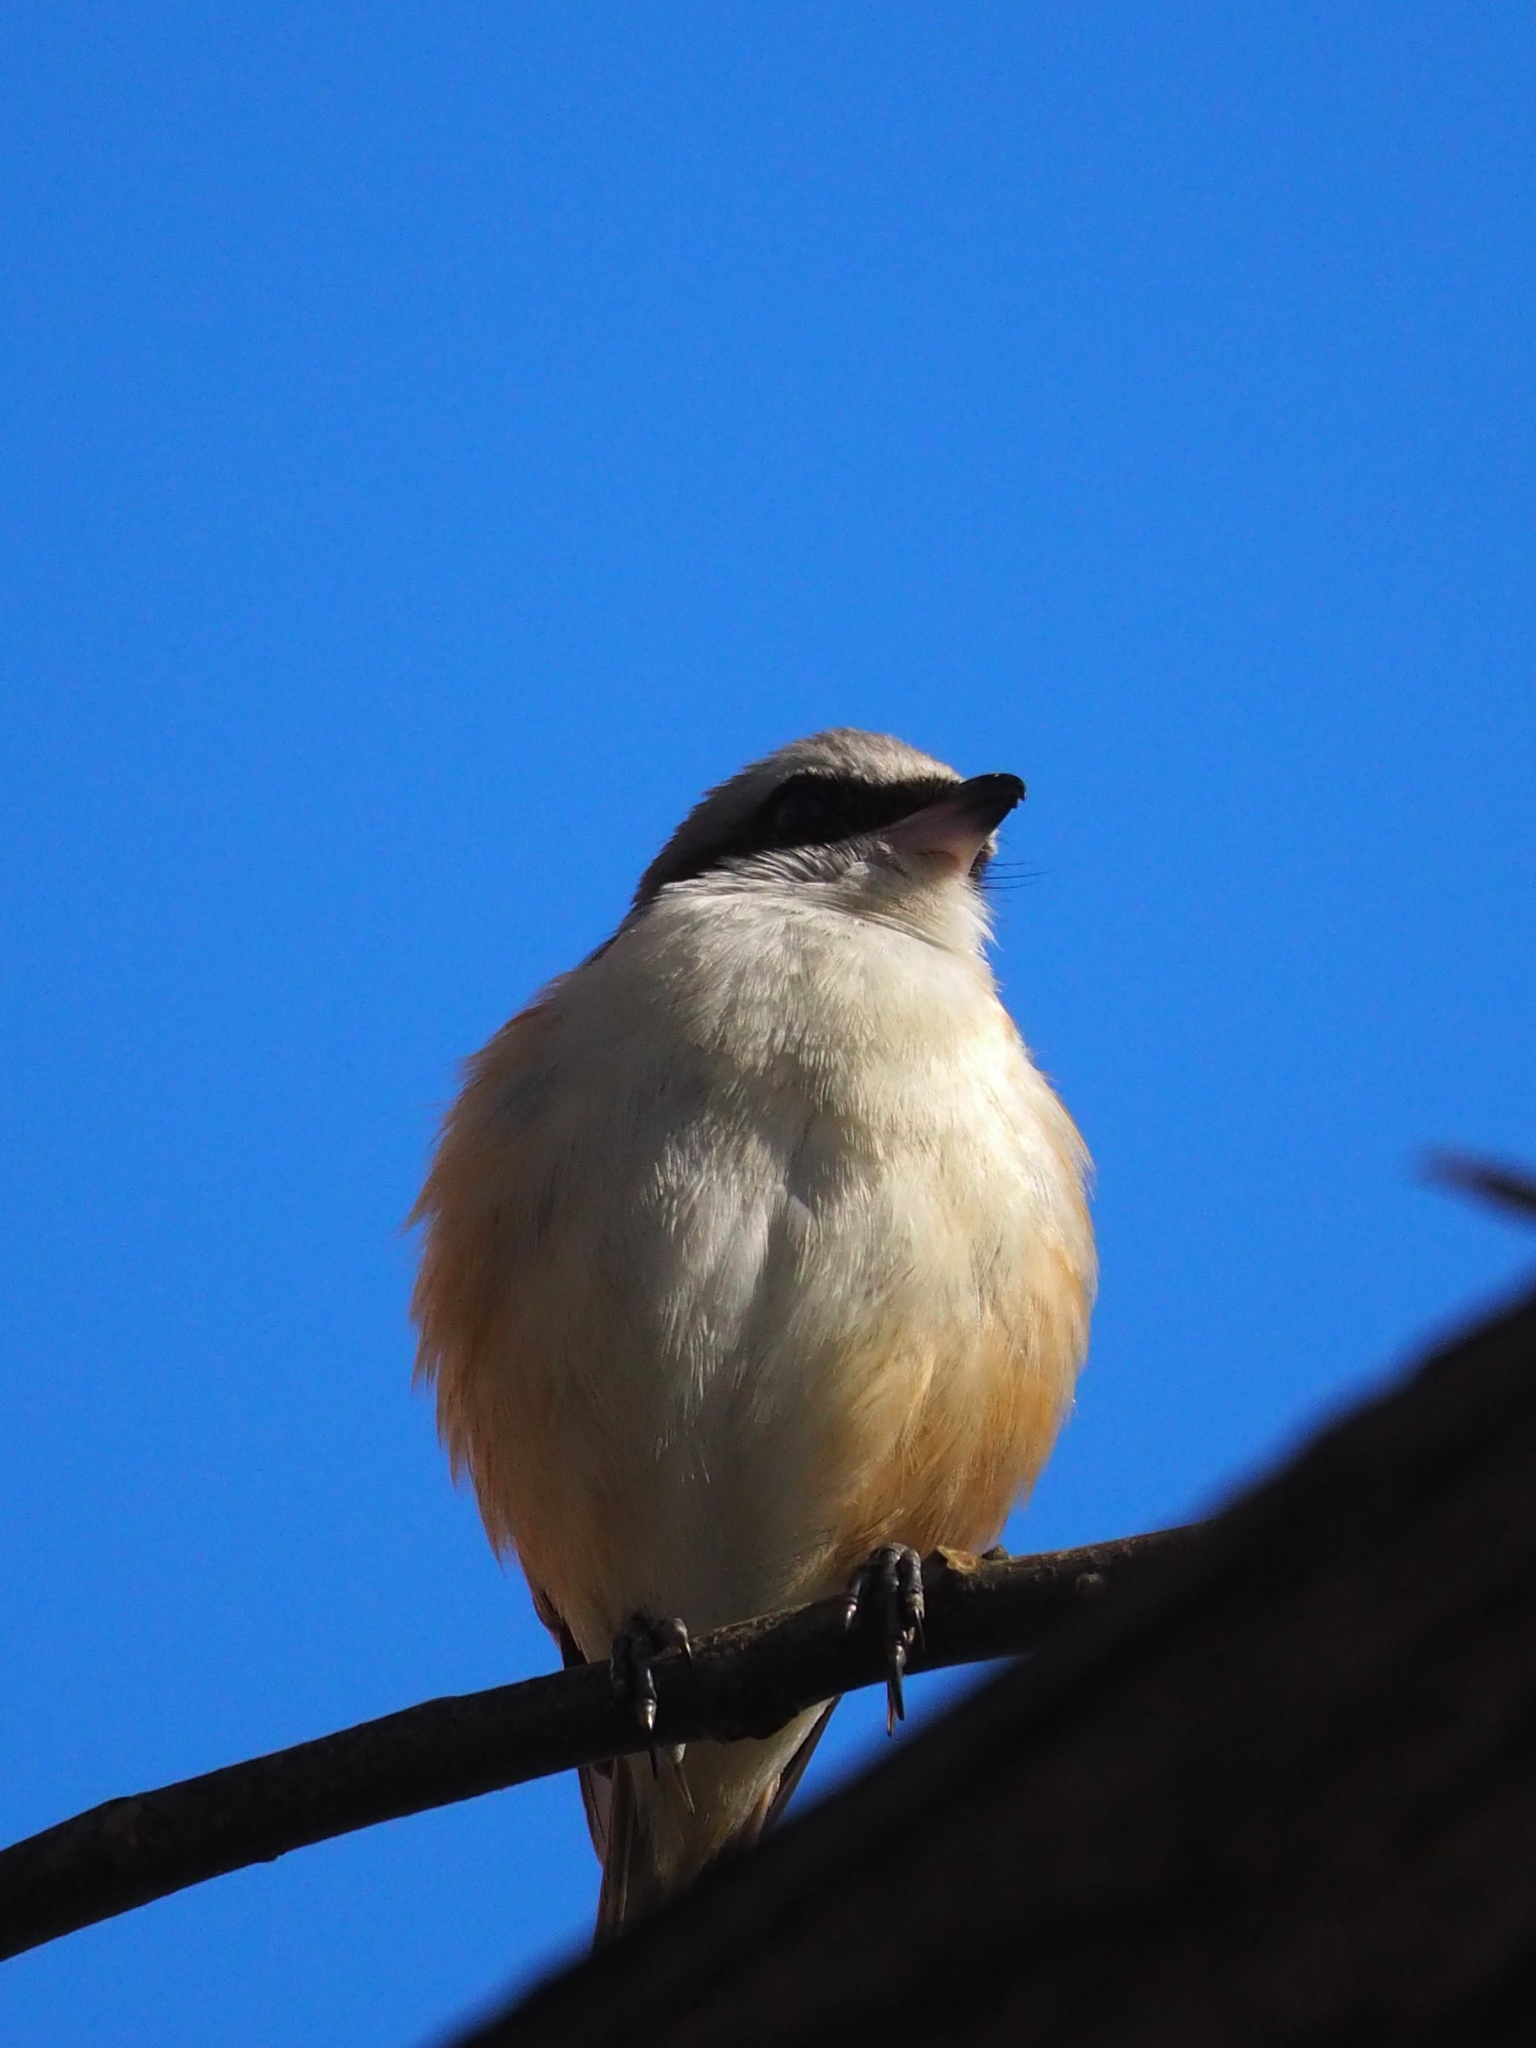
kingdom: Animalia
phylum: Chordata
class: Aves
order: Passeriformes
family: Laniidae
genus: Lanius
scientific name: Lanius cristatus
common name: Brown shrike
